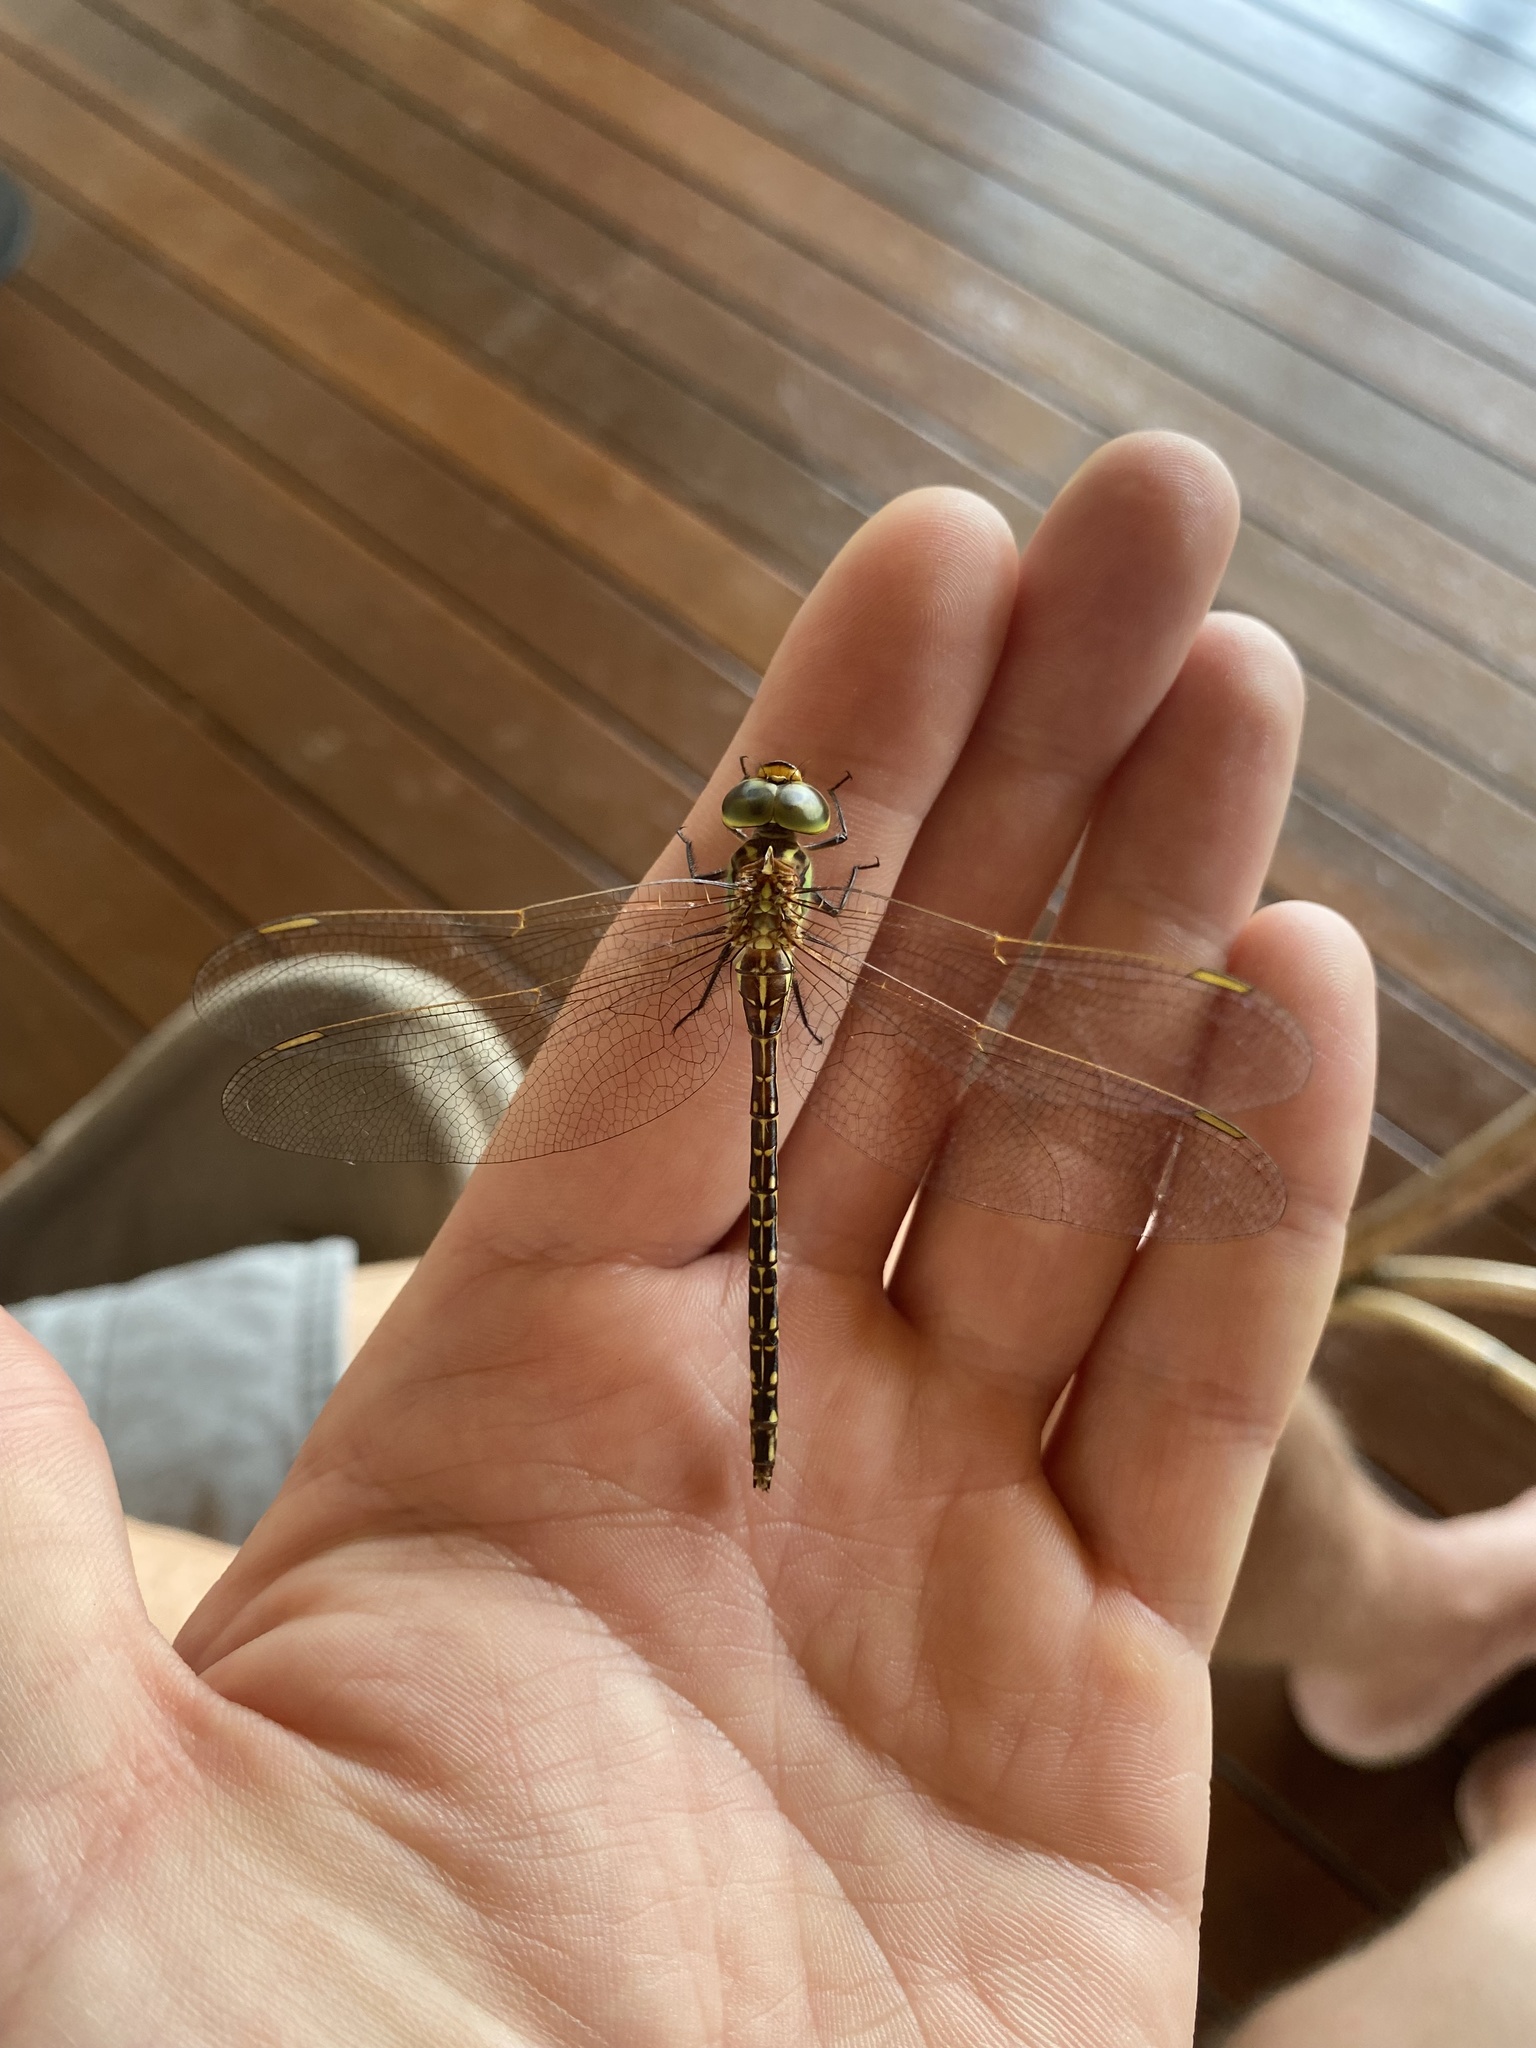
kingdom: Animalia
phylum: Arthropoda
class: Insecta
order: Odonata
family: Aeshnidae
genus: Austrogynacantha
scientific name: Austrogynacantha heterogena
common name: Australian duskhawker
